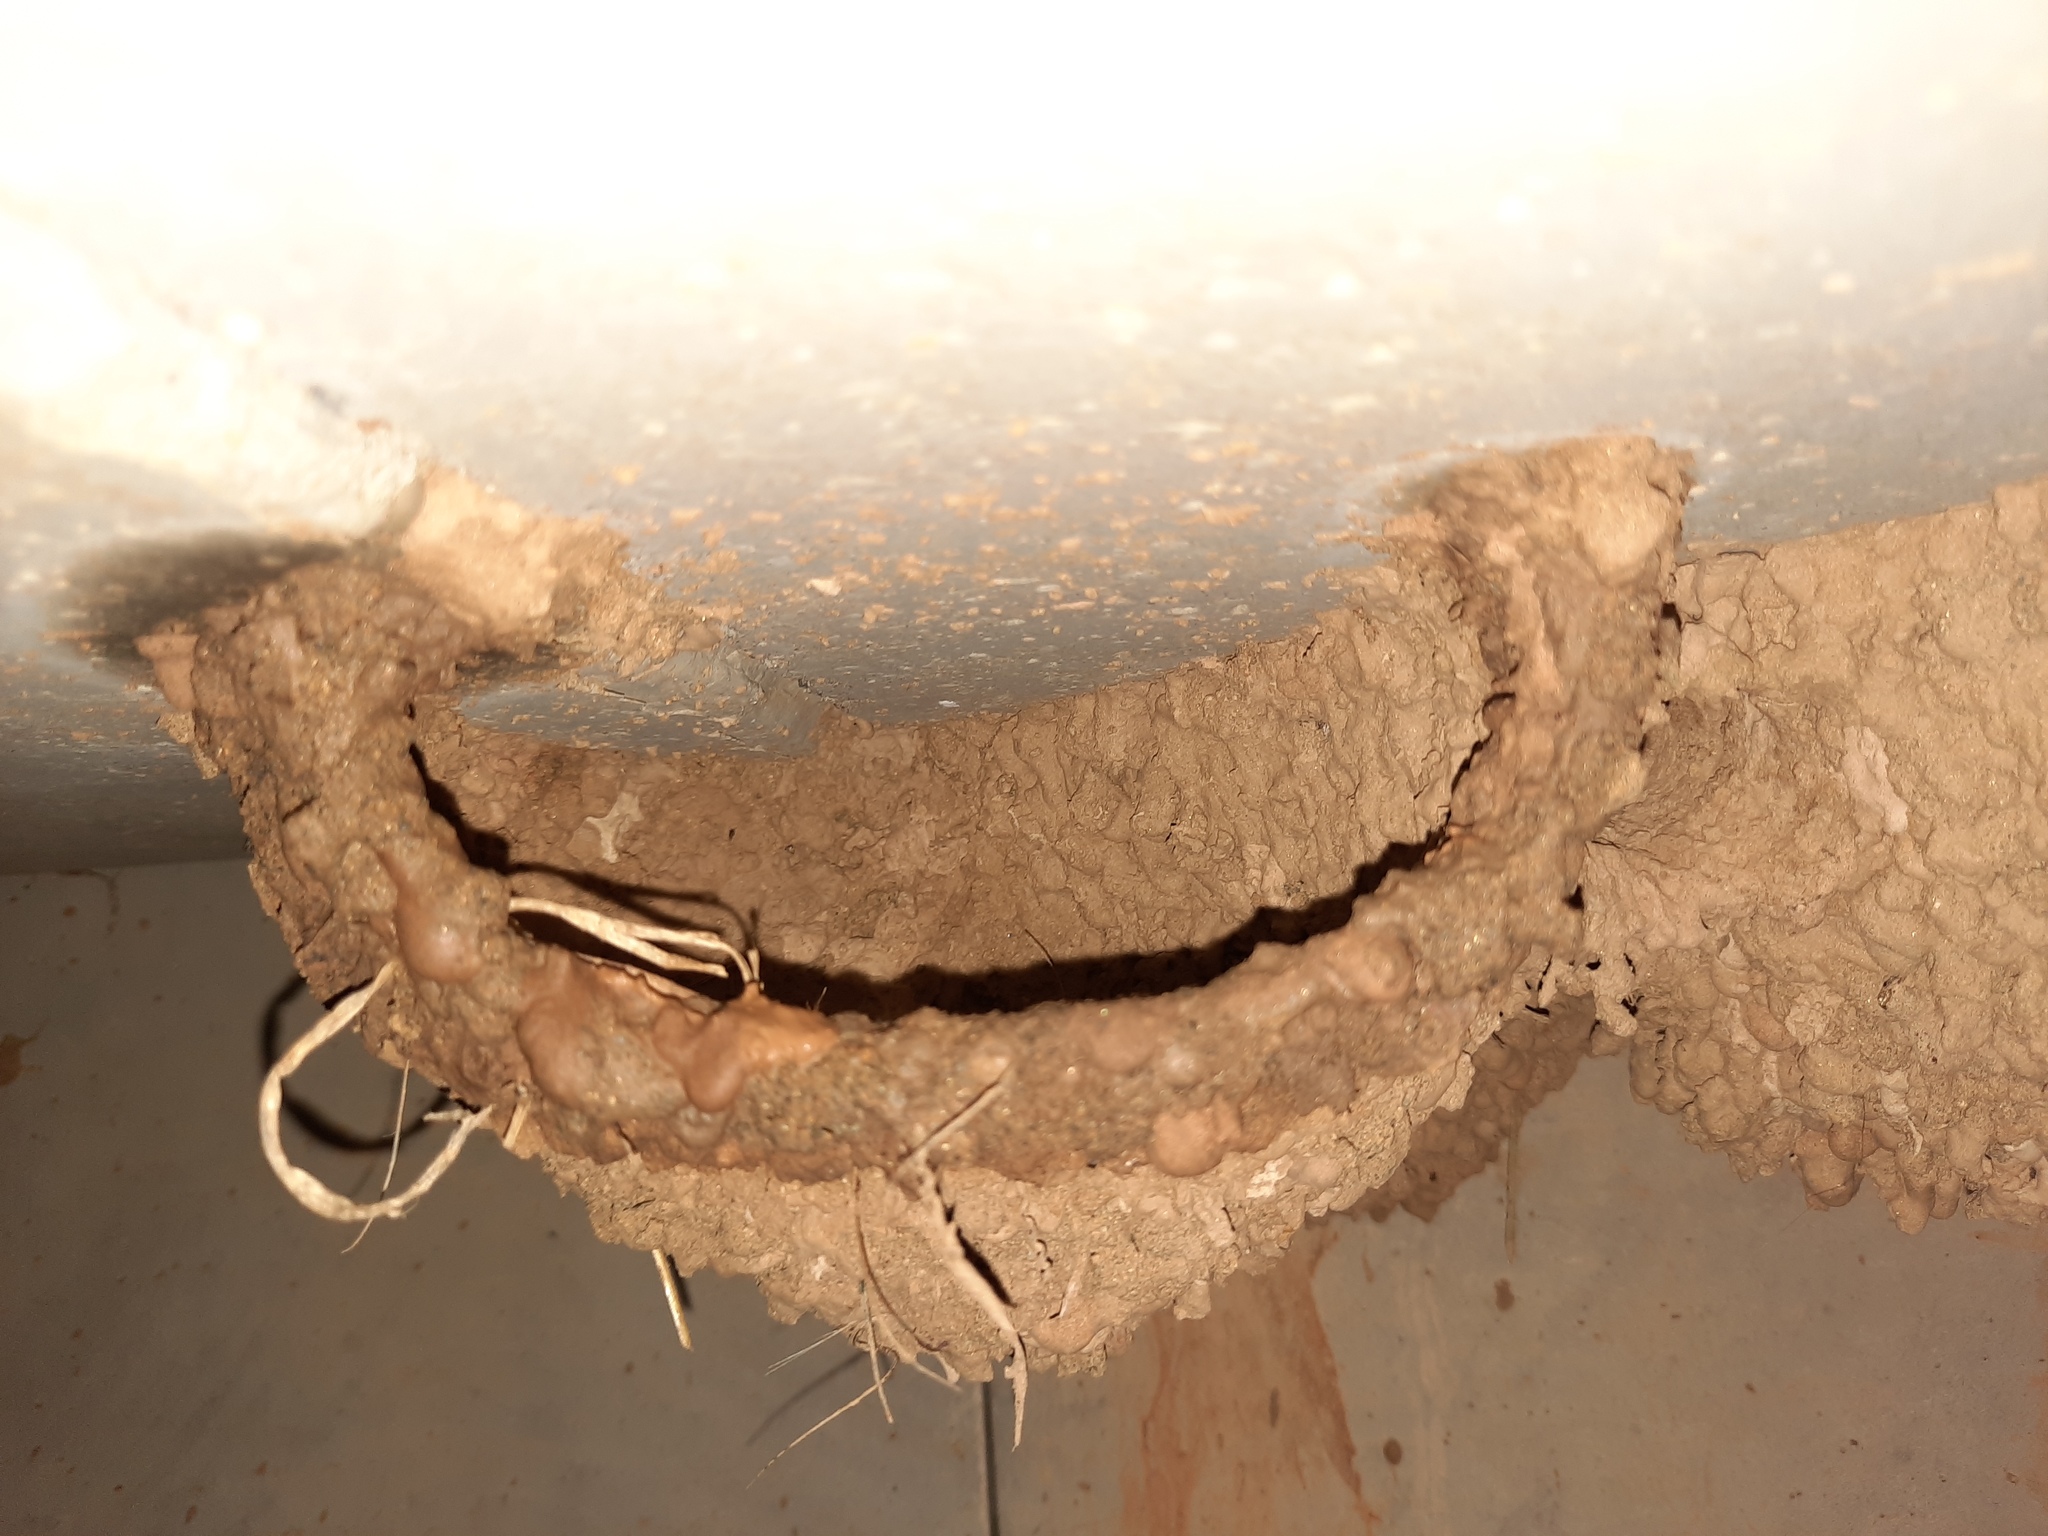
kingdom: Animalia
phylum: Chordata
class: Aves
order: Passeriformes
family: Hirundinidae
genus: Petrochelidon
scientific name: Petrochelidon ariel
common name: Fairy martin
